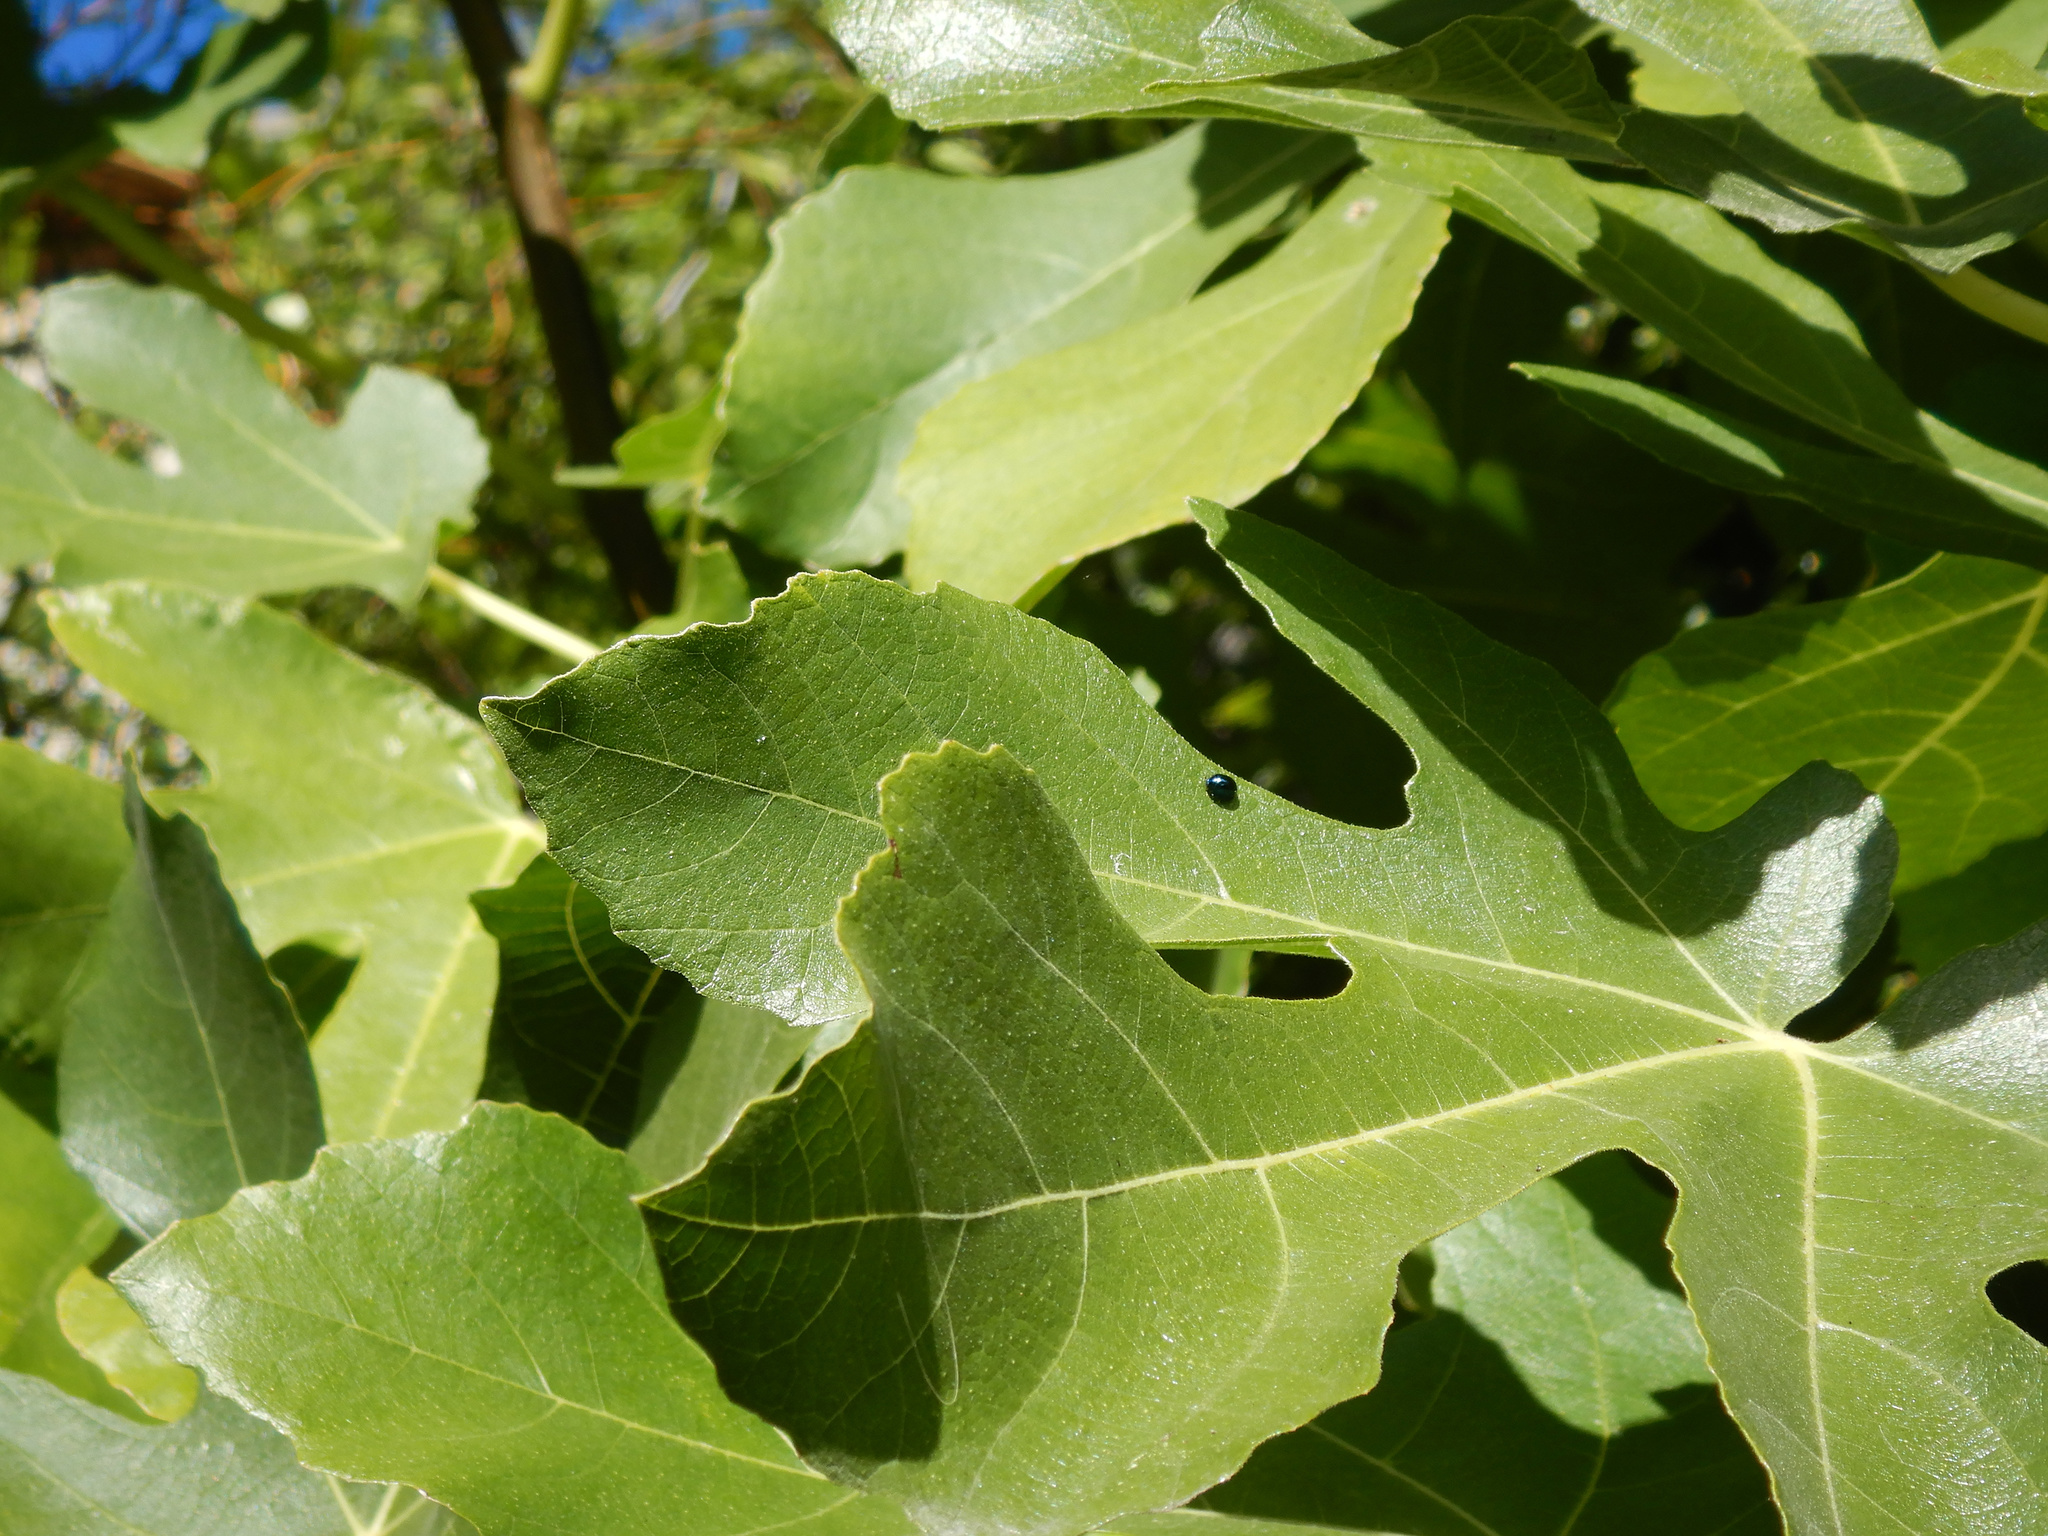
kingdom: Animalia
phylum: Arthropoda
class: Insecta
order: Coleoptera
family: Coccinellidae
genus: Halmus
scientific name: Halmus chalybeus
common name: Steel blue ladybird beetle
